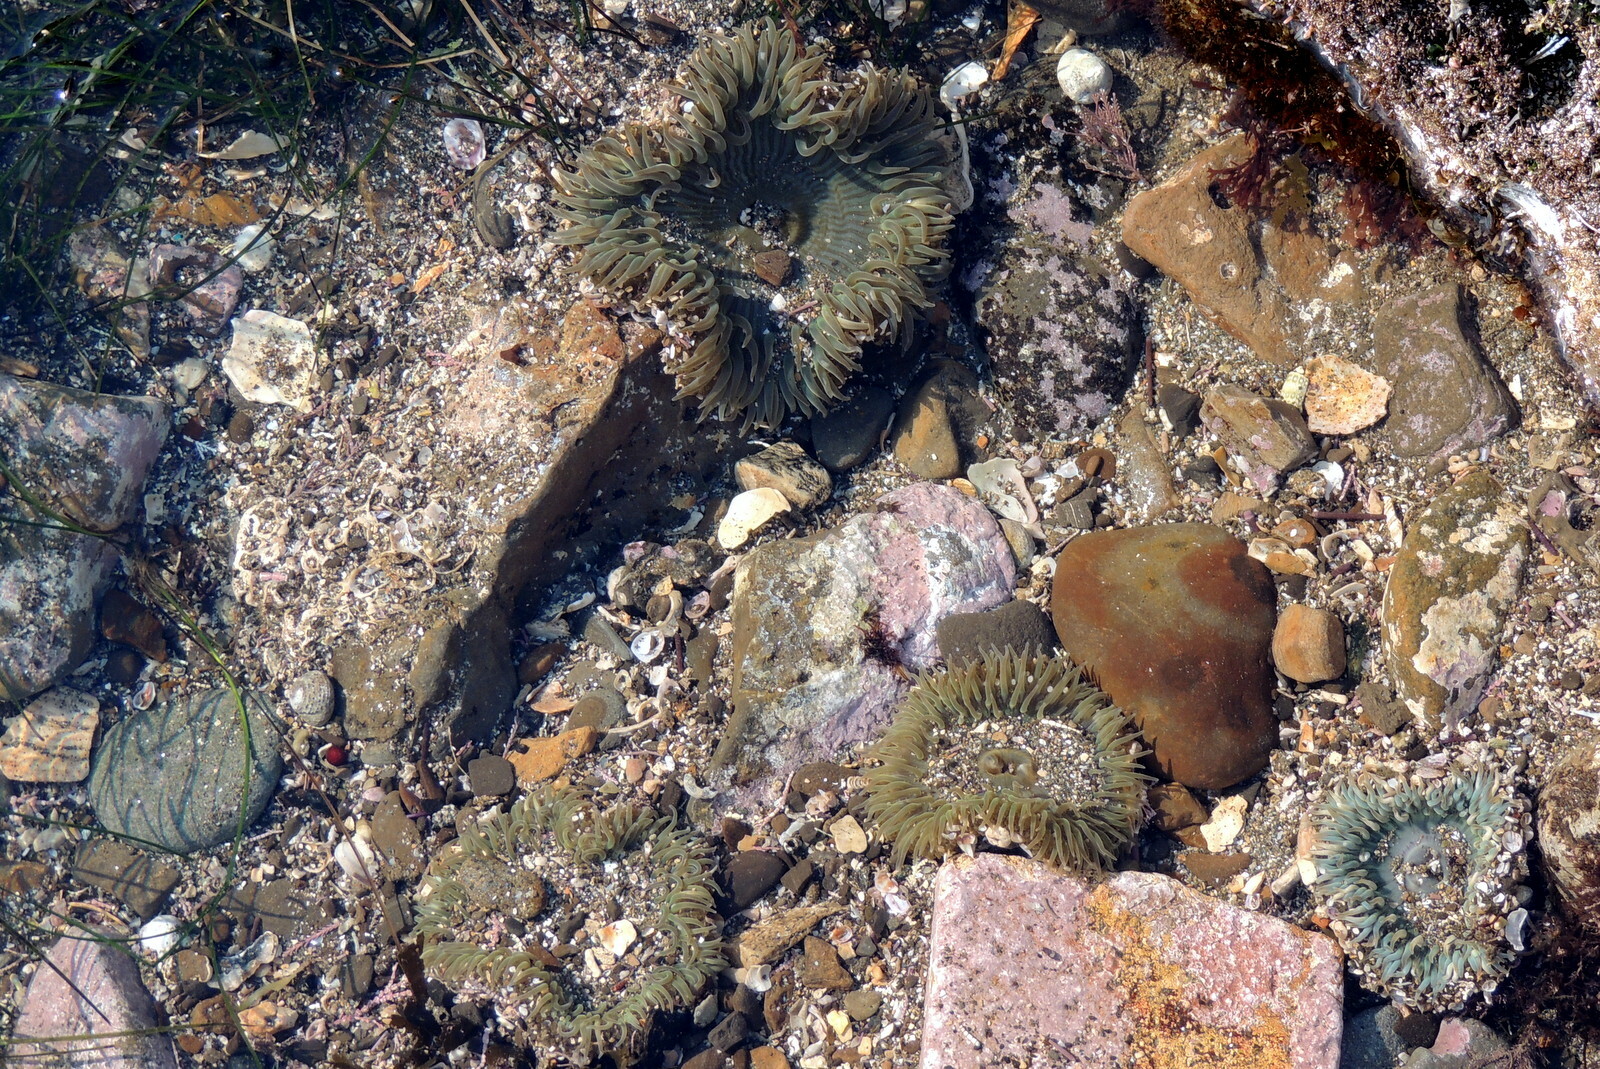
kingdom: Animalia
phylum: Cnidaria
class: Anthozoa
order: Actiniaria
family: Actiniidae
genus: Anthopleura
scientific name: Anthopleura sola
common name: Sun anemone
